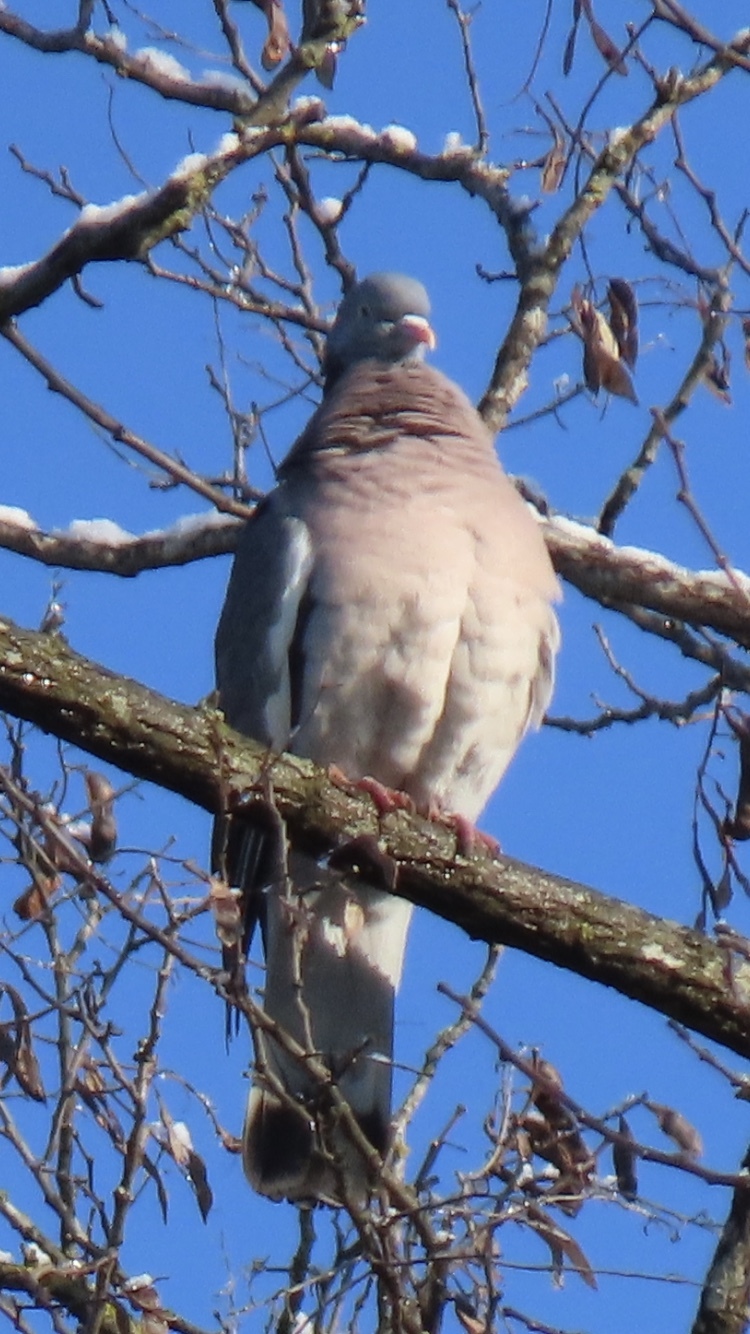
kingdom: Animalia
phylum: Chordata
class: Aves
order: Columbiformes
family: Columbidae
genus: Columba
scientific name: Columba palumbus
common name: Common wood pigeon
